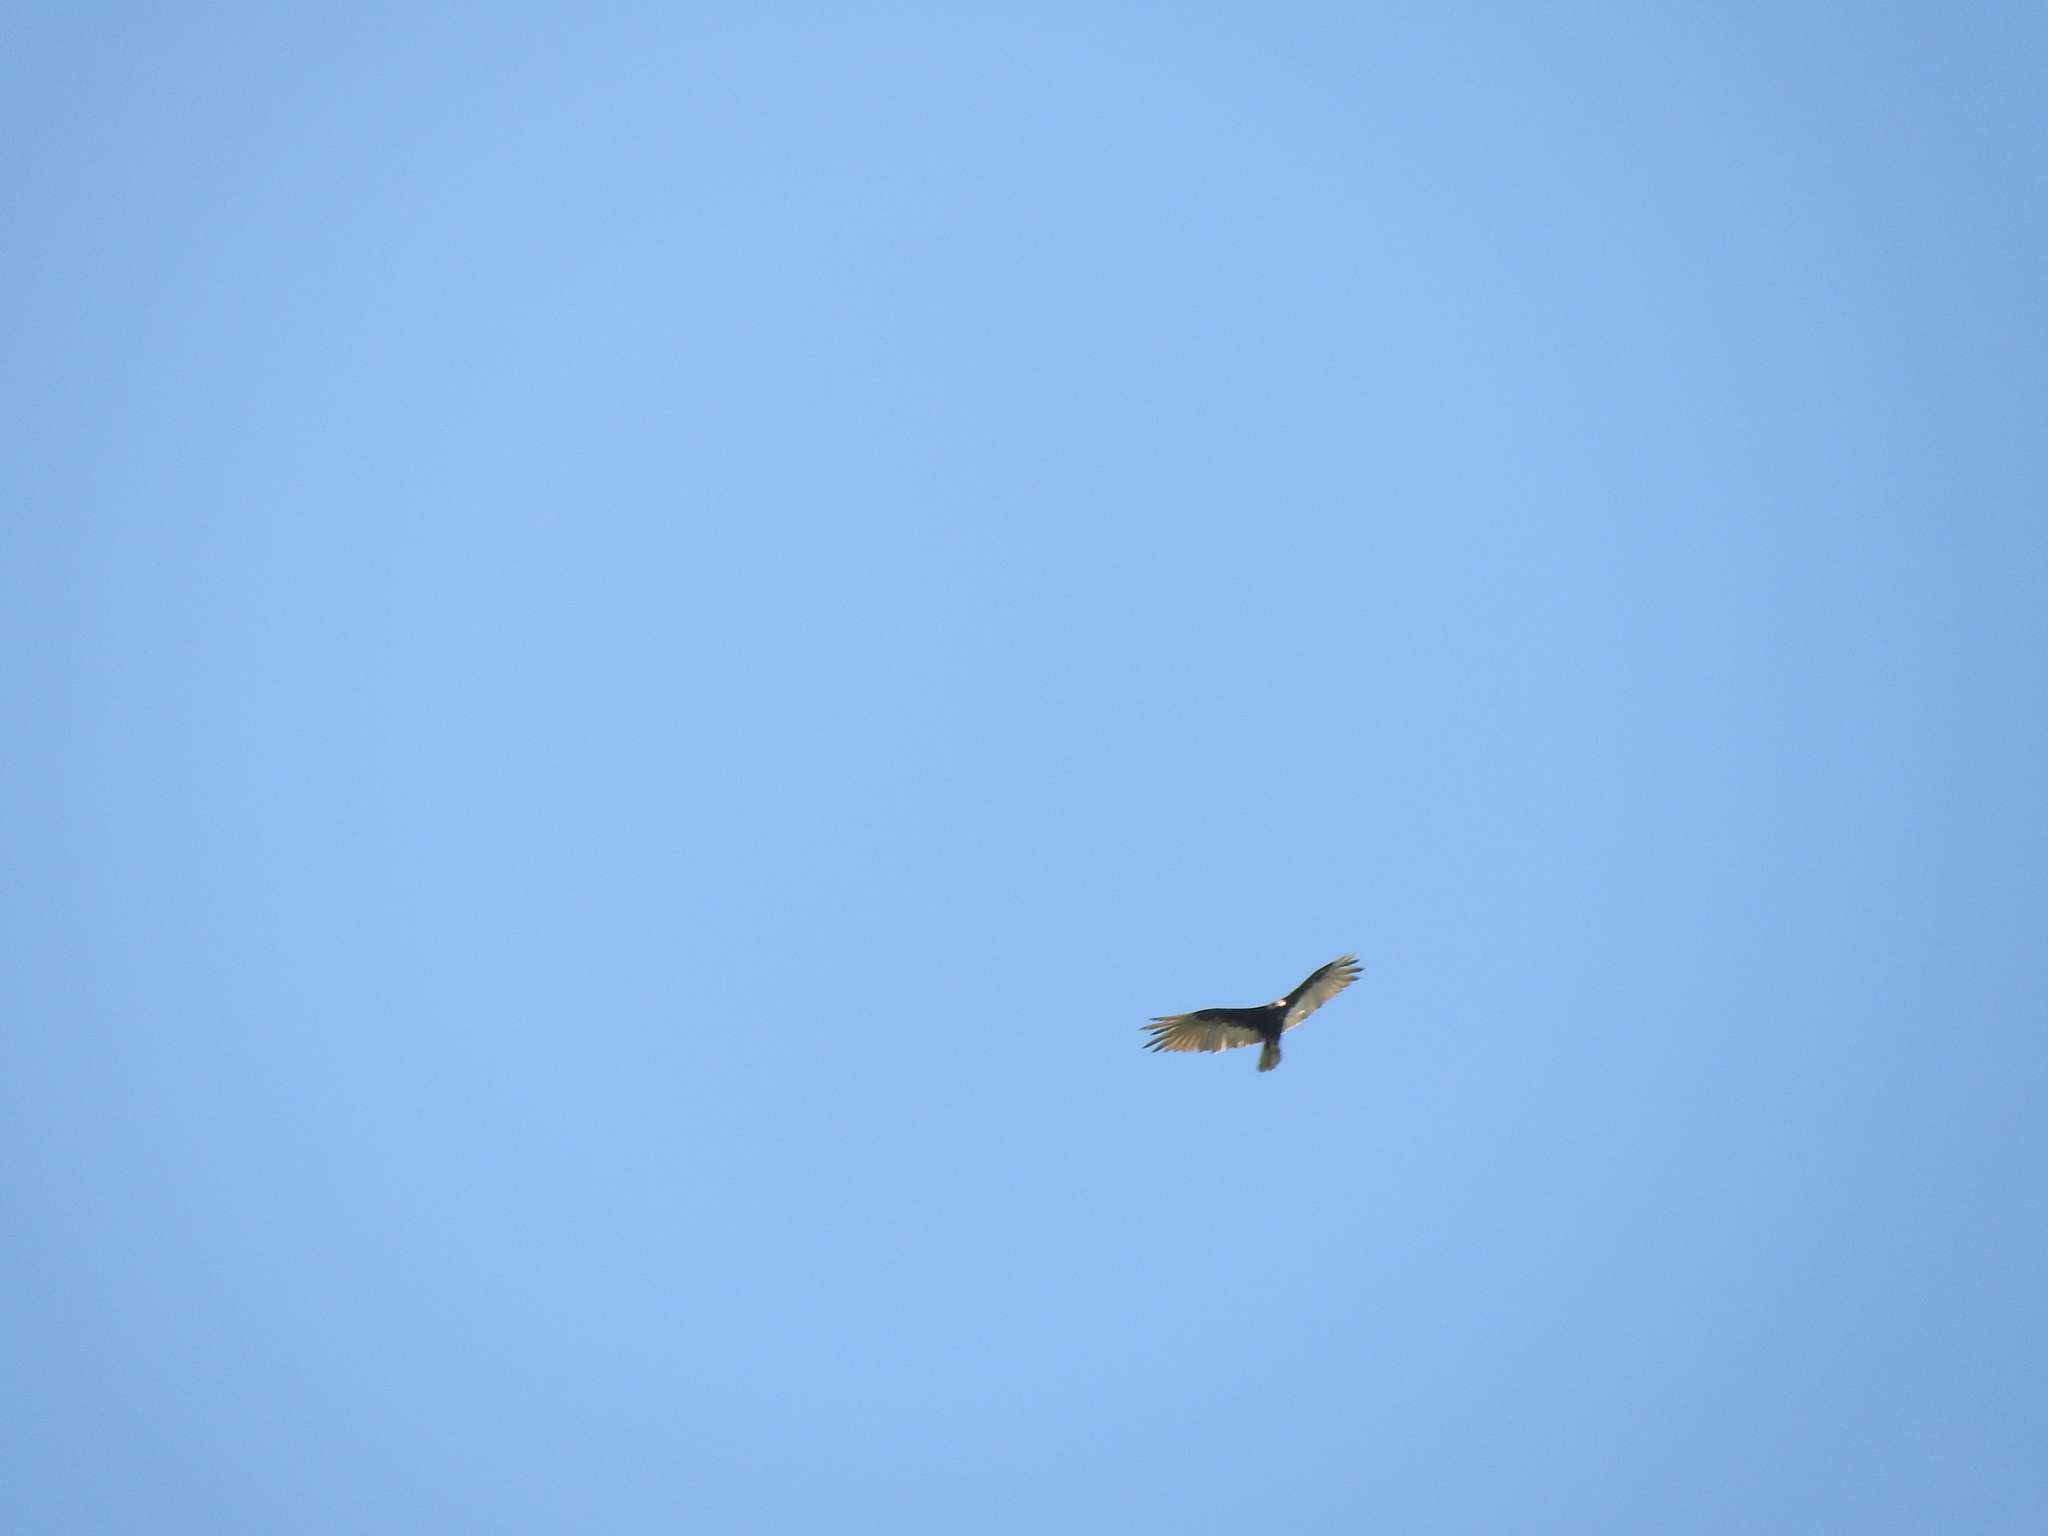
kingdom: Animalia
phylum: Chordata
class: Aves
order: Accipitriformes
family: Cathartidae
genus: Cathartes
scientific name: Cathartes aura
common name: Turkey vulture
